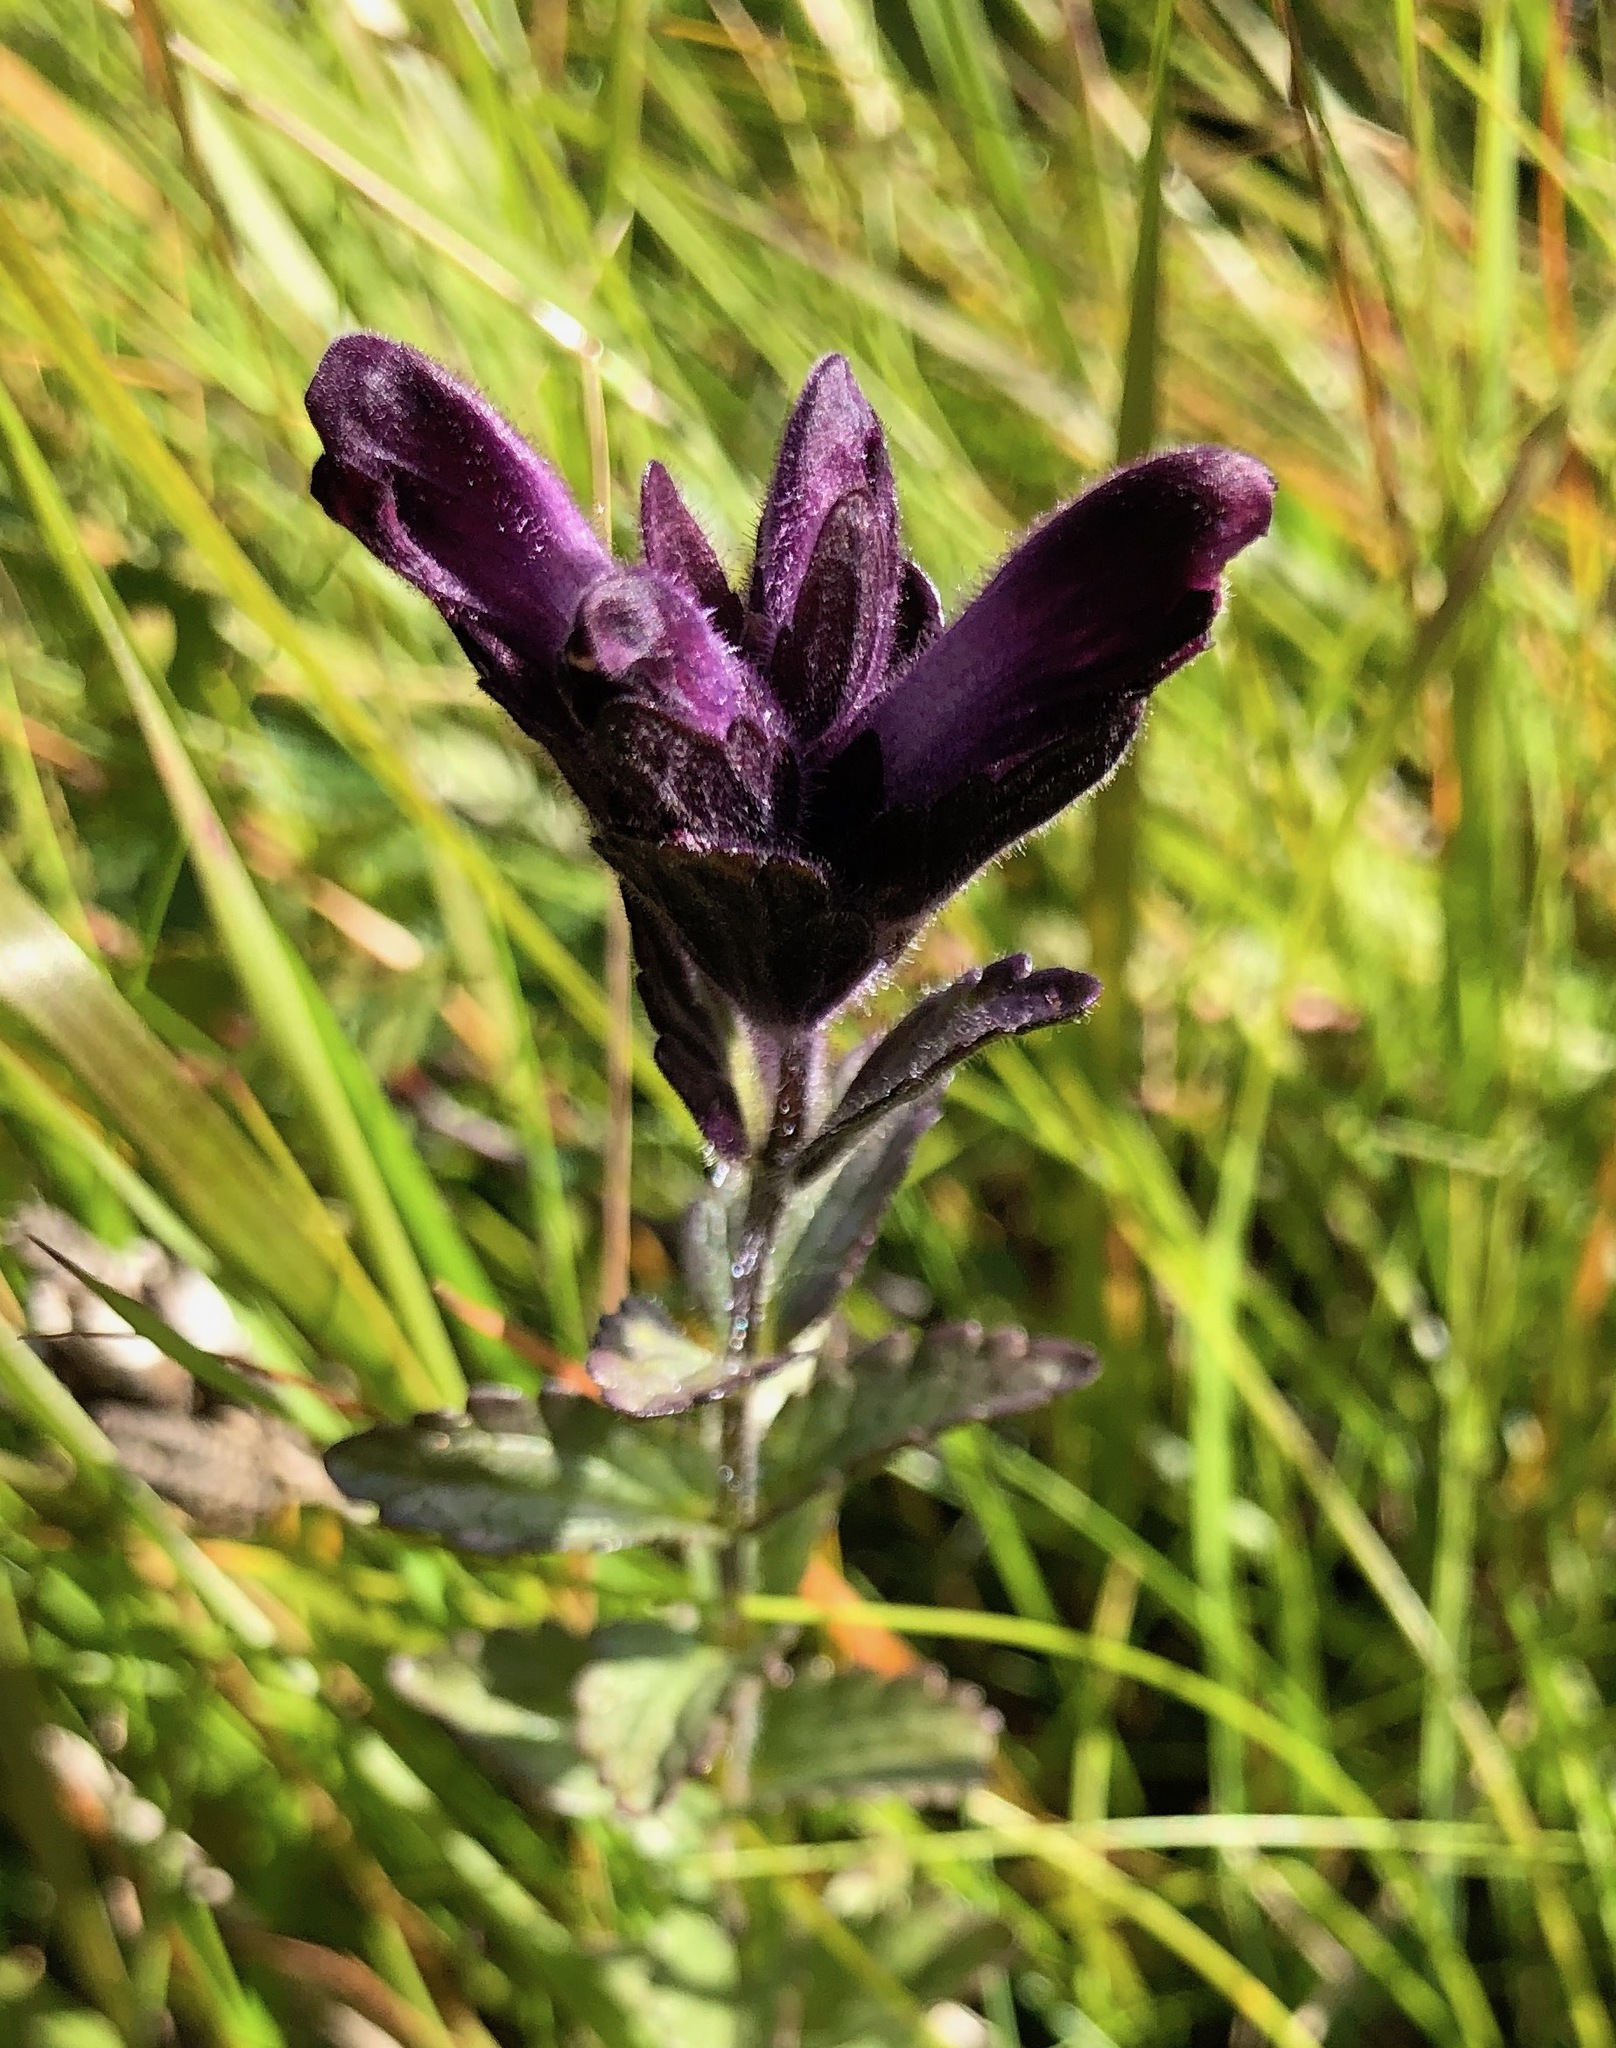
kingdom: Plantae
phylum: Tracheophyta
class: Magnoliopsida
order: Lamiales
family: Orobanchaceae
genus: Bartsia
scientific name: Bartsia alpina
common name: Alpine bartsia
